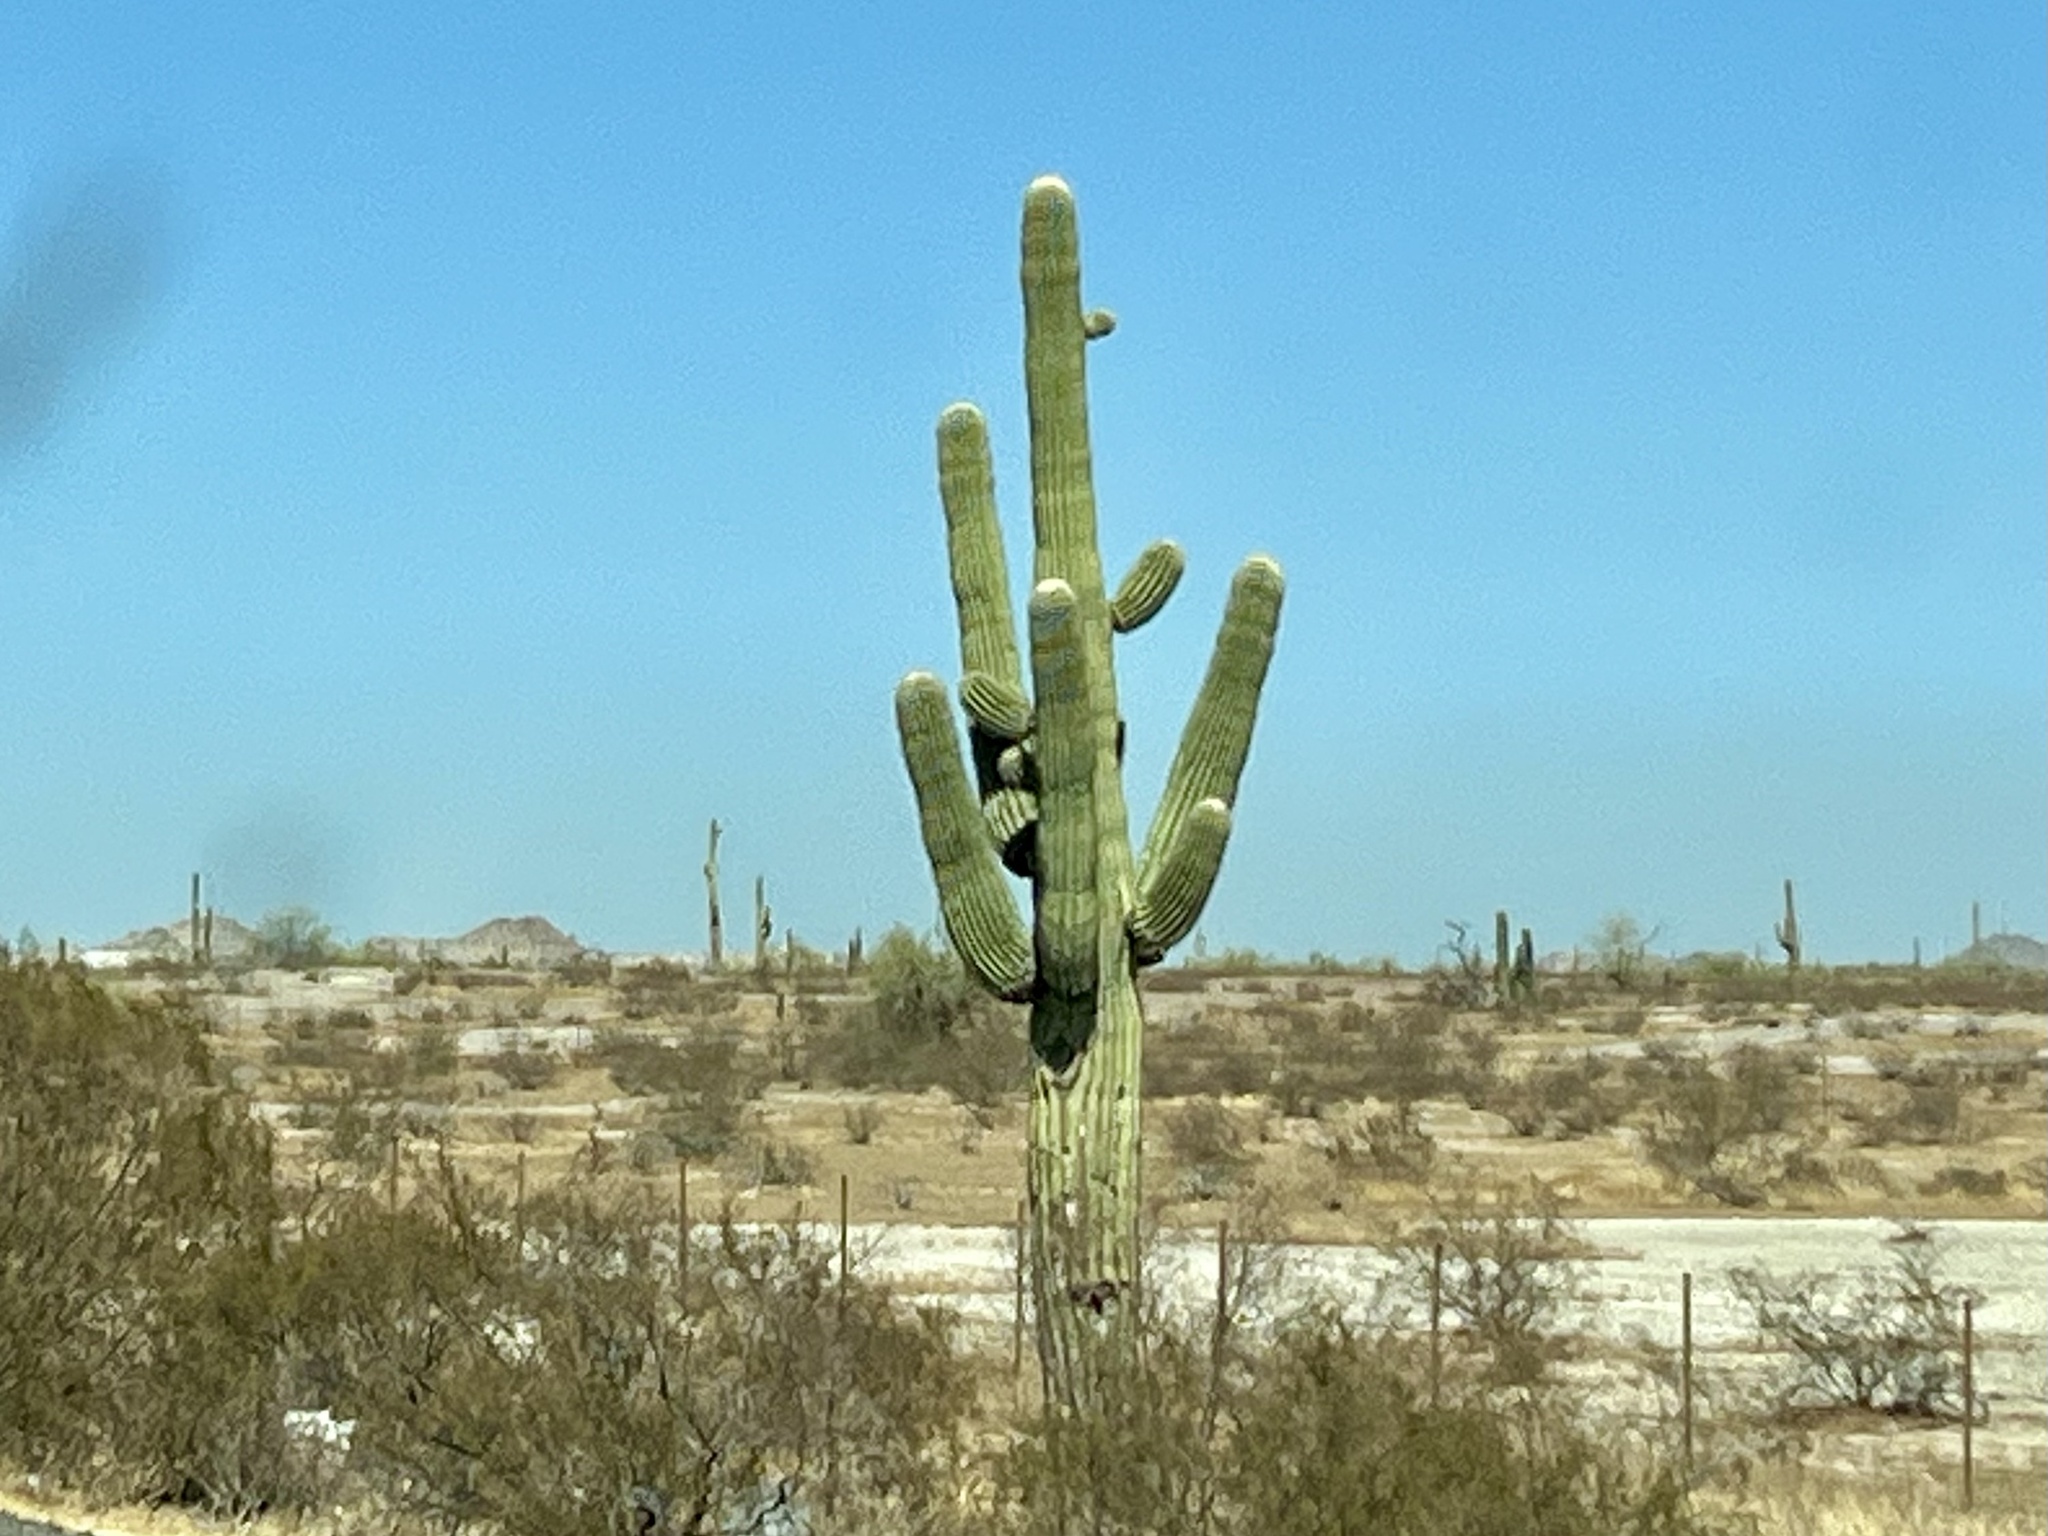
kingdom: Plantae
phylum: Tracheophyta
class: Magnoliopsida
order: Caryophyllales
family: Cactaceae
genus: Carnegiea
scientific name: Carnegiea gigantea
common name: Saguaro
